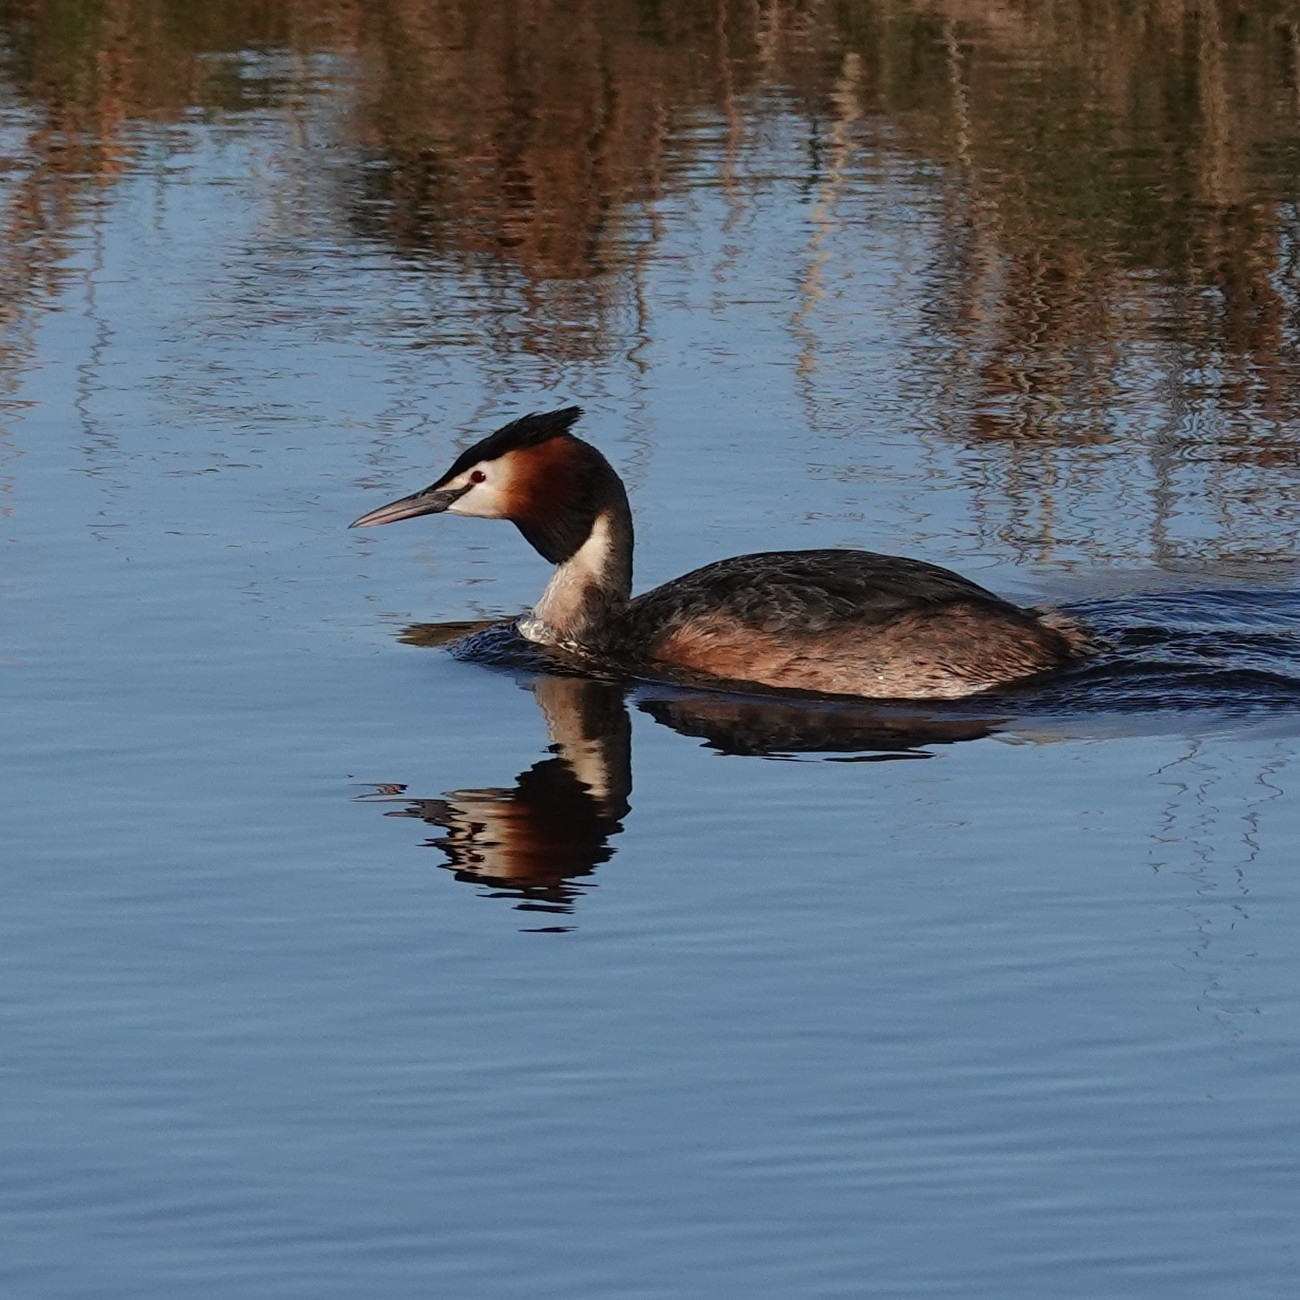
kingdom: Animalia
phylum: Chordata
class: Aves
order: Podicipediformes
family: Podicipedidae
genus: Podiceps
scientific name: Podiceps cristatus
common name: Great crested grebe
